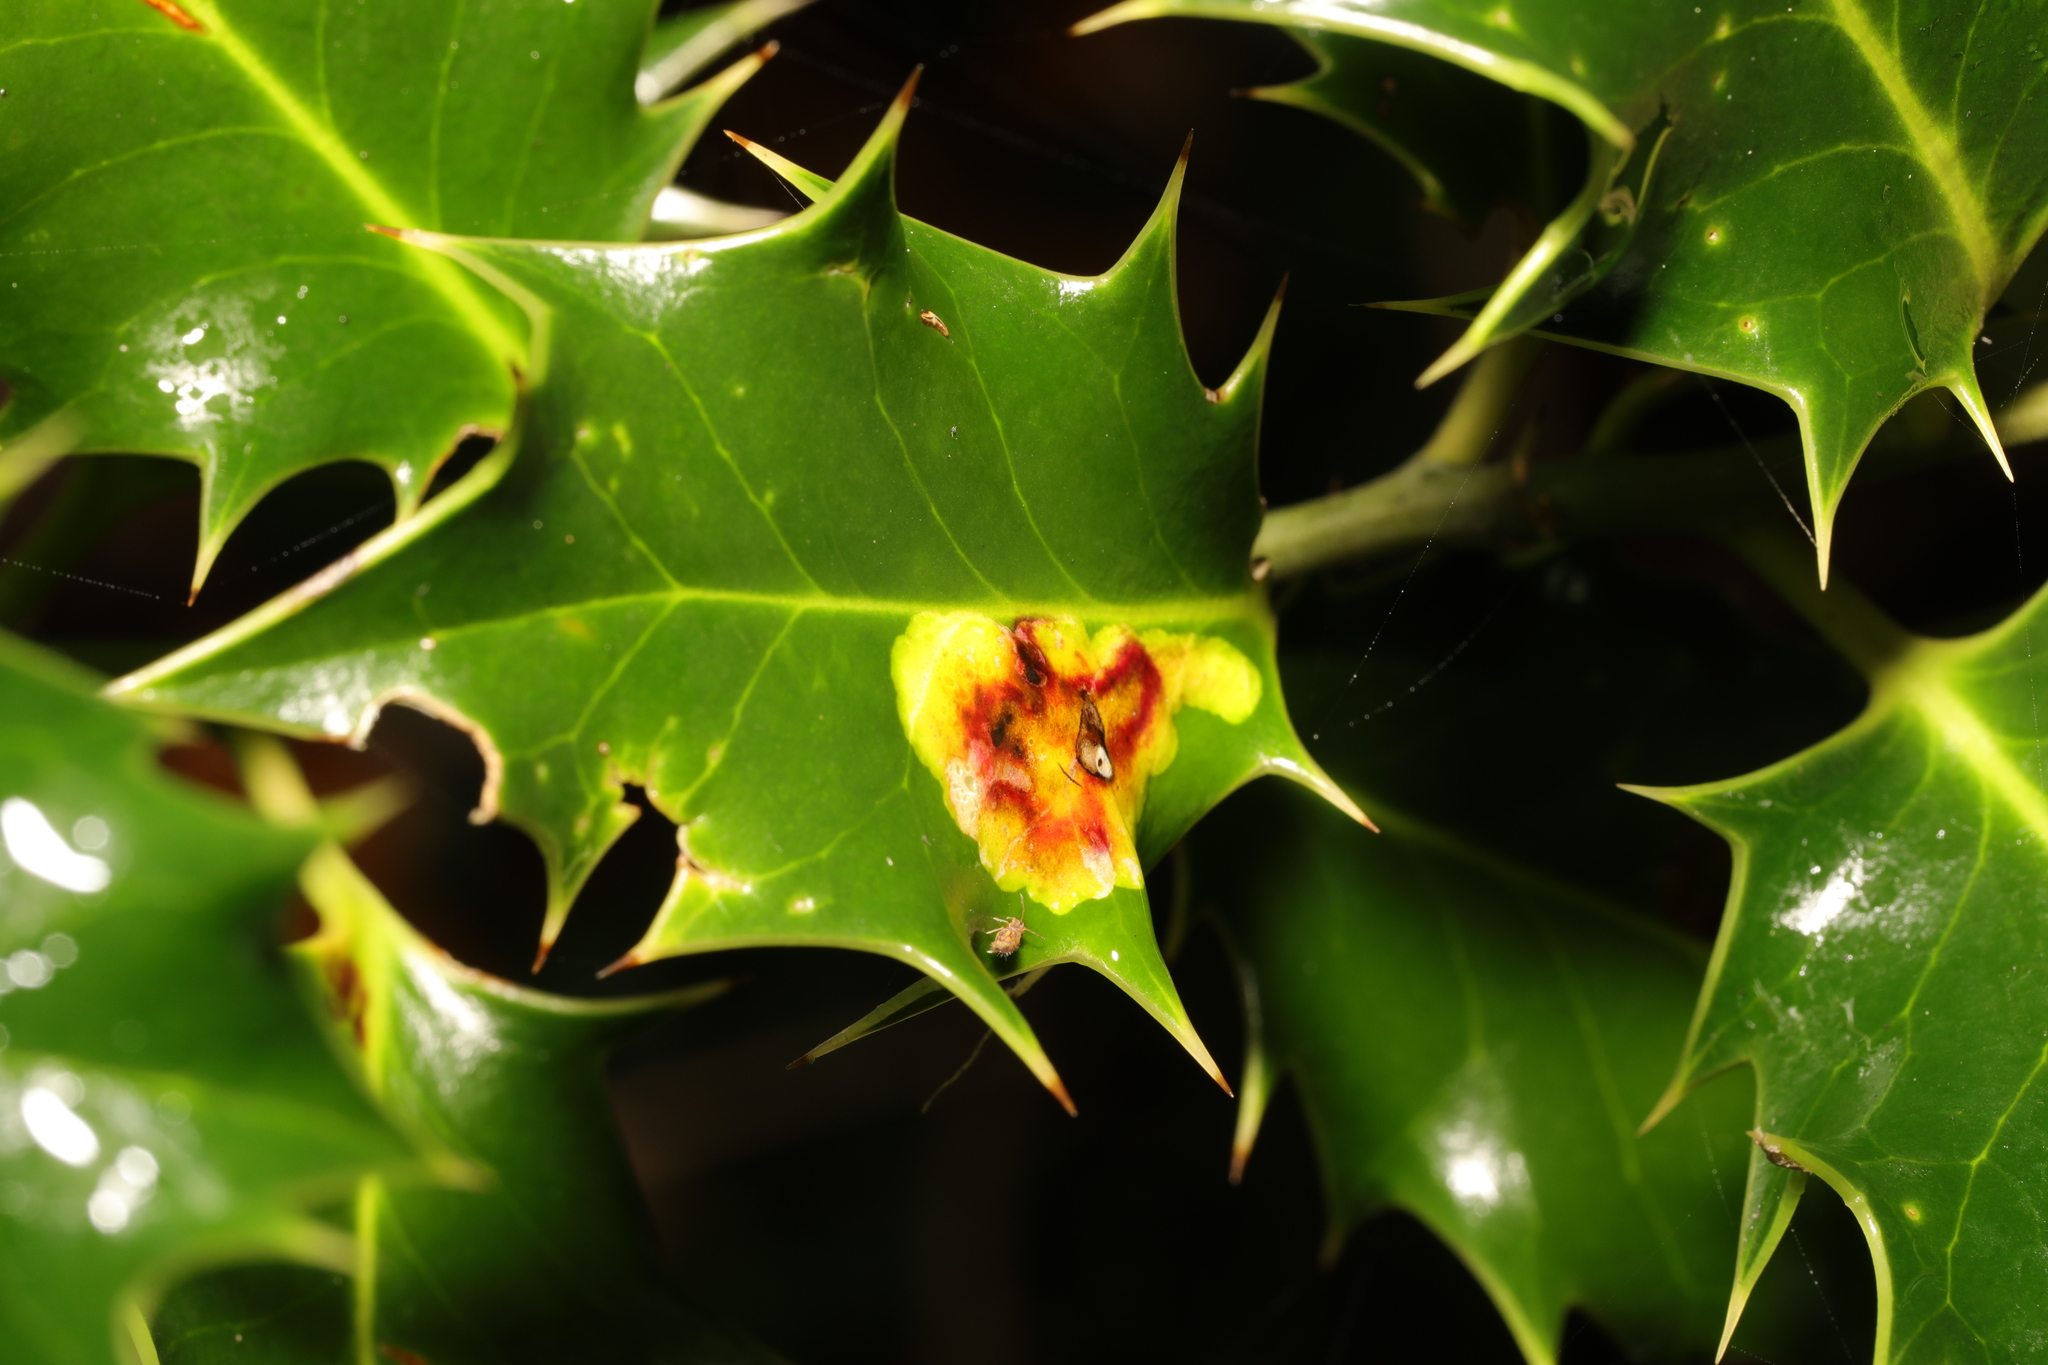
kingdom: Animalia
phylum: Arthropoda
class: Insecta
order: Diptera
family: Agromyzidae
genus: Phytomyza
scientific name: Phytomyza ilicis
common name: Holly leafminer
